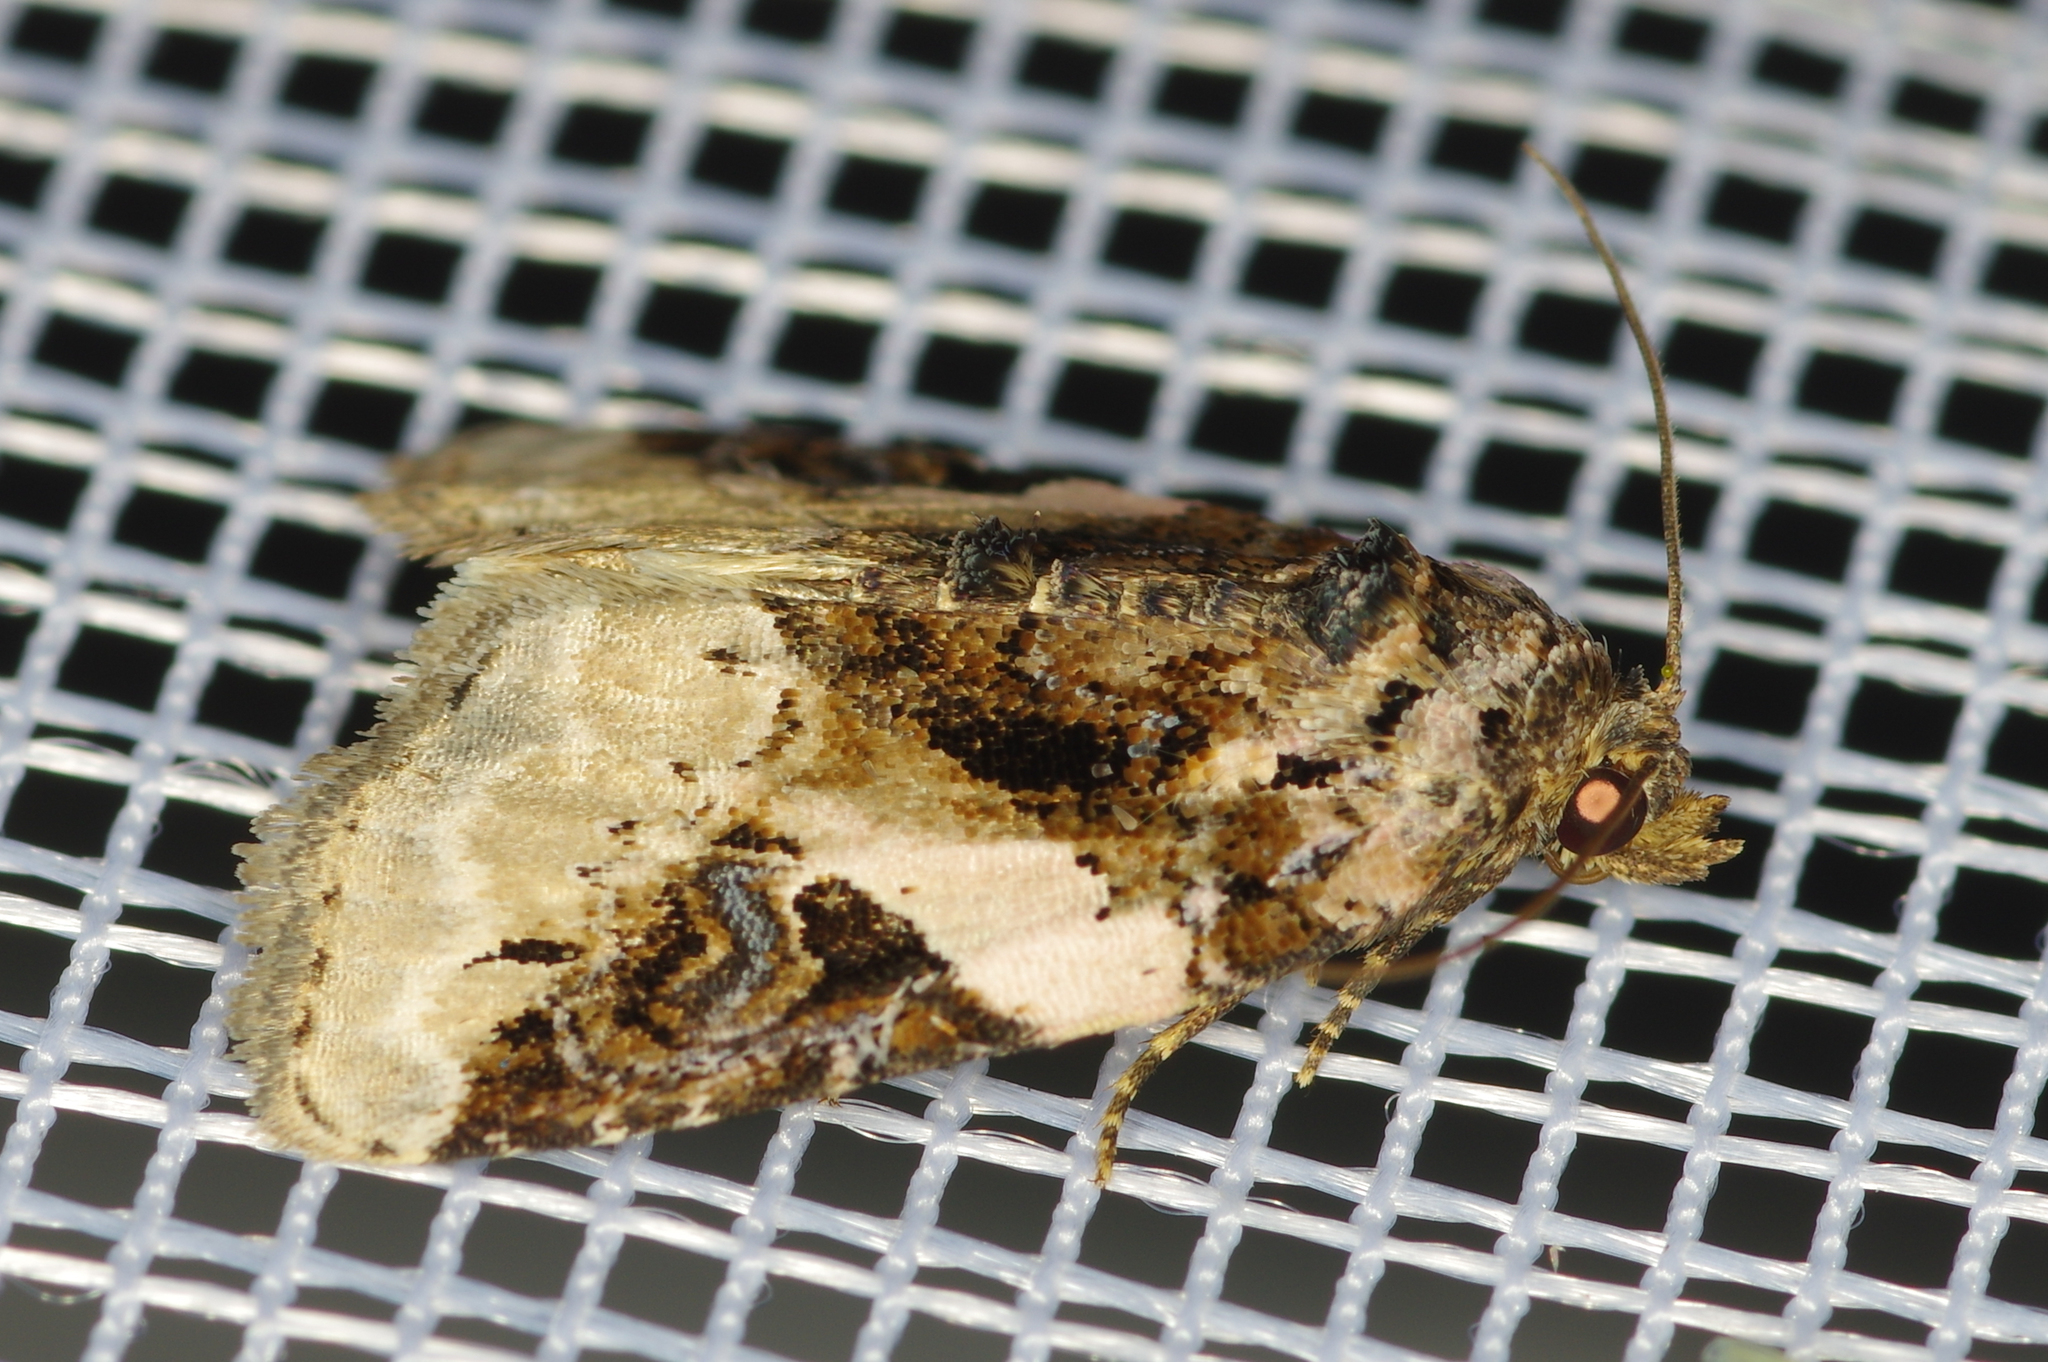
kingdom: Animalia
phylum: Arthropoda
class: Insecta
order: Lepidoptera
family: Noctuidae
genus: Pseudeustrotia
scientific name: Pseudeustrotia carneola
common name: Pink-barred lithacodia moth
